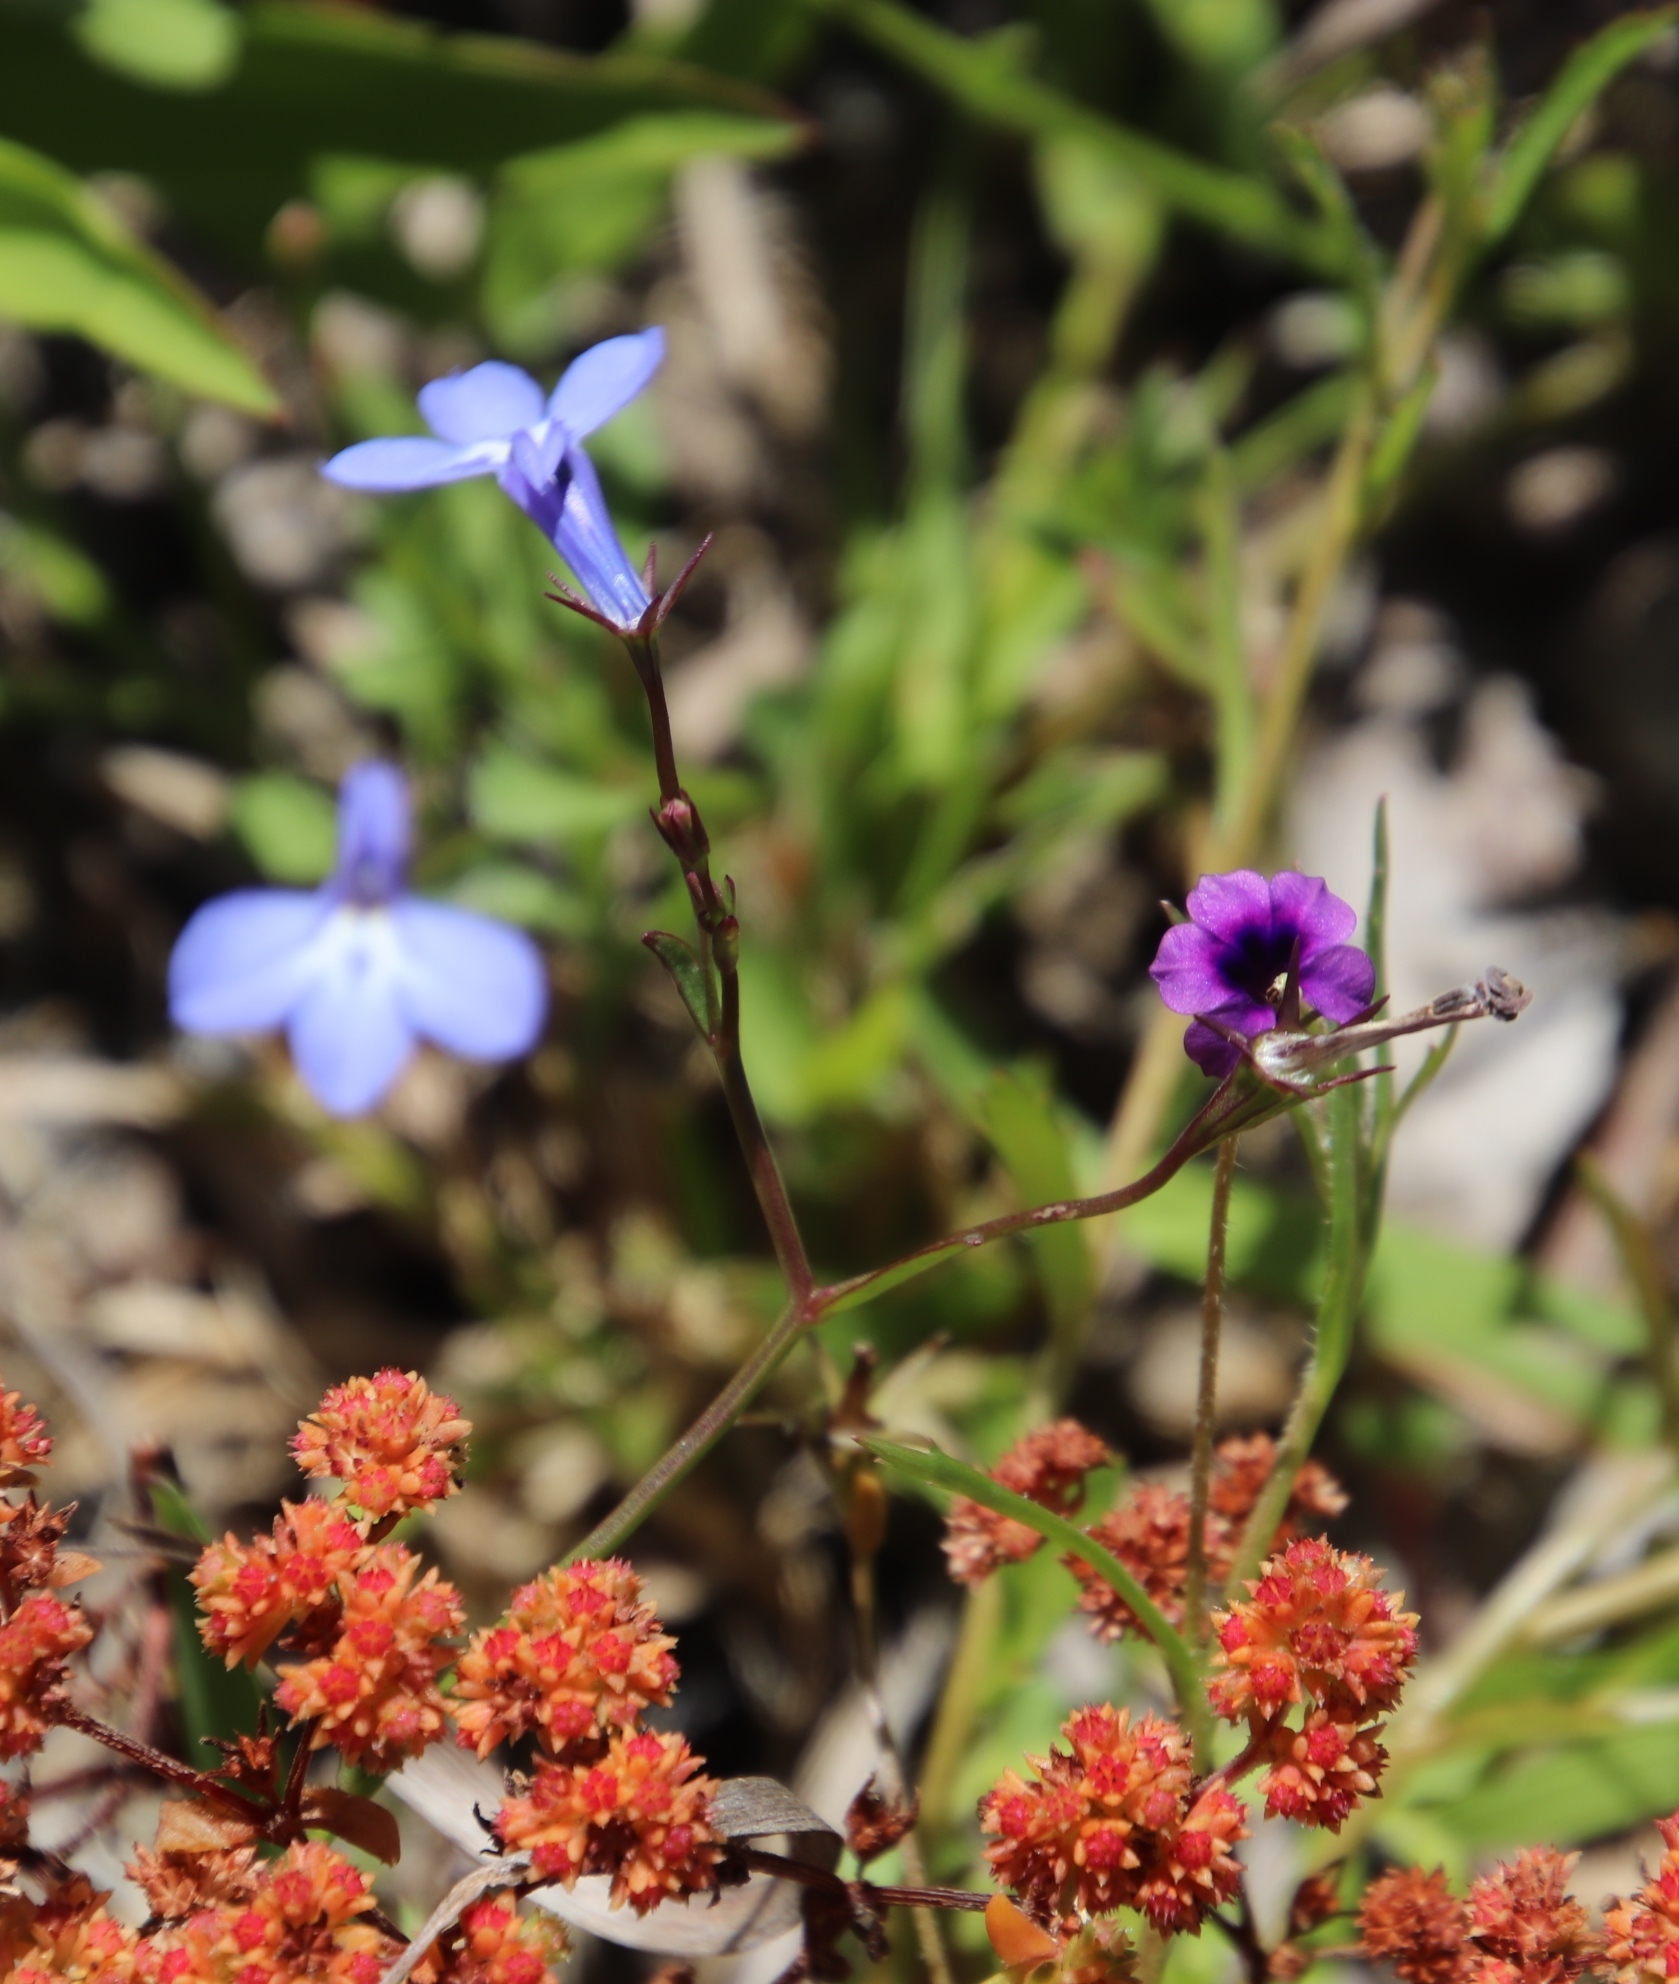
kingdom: Plantae
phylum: Tracheophyta
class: Magnoliopsida
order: Asterales
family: Campanulaceae
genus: Lobelia
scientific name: Lobelia erinus
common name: Edging lobelia
